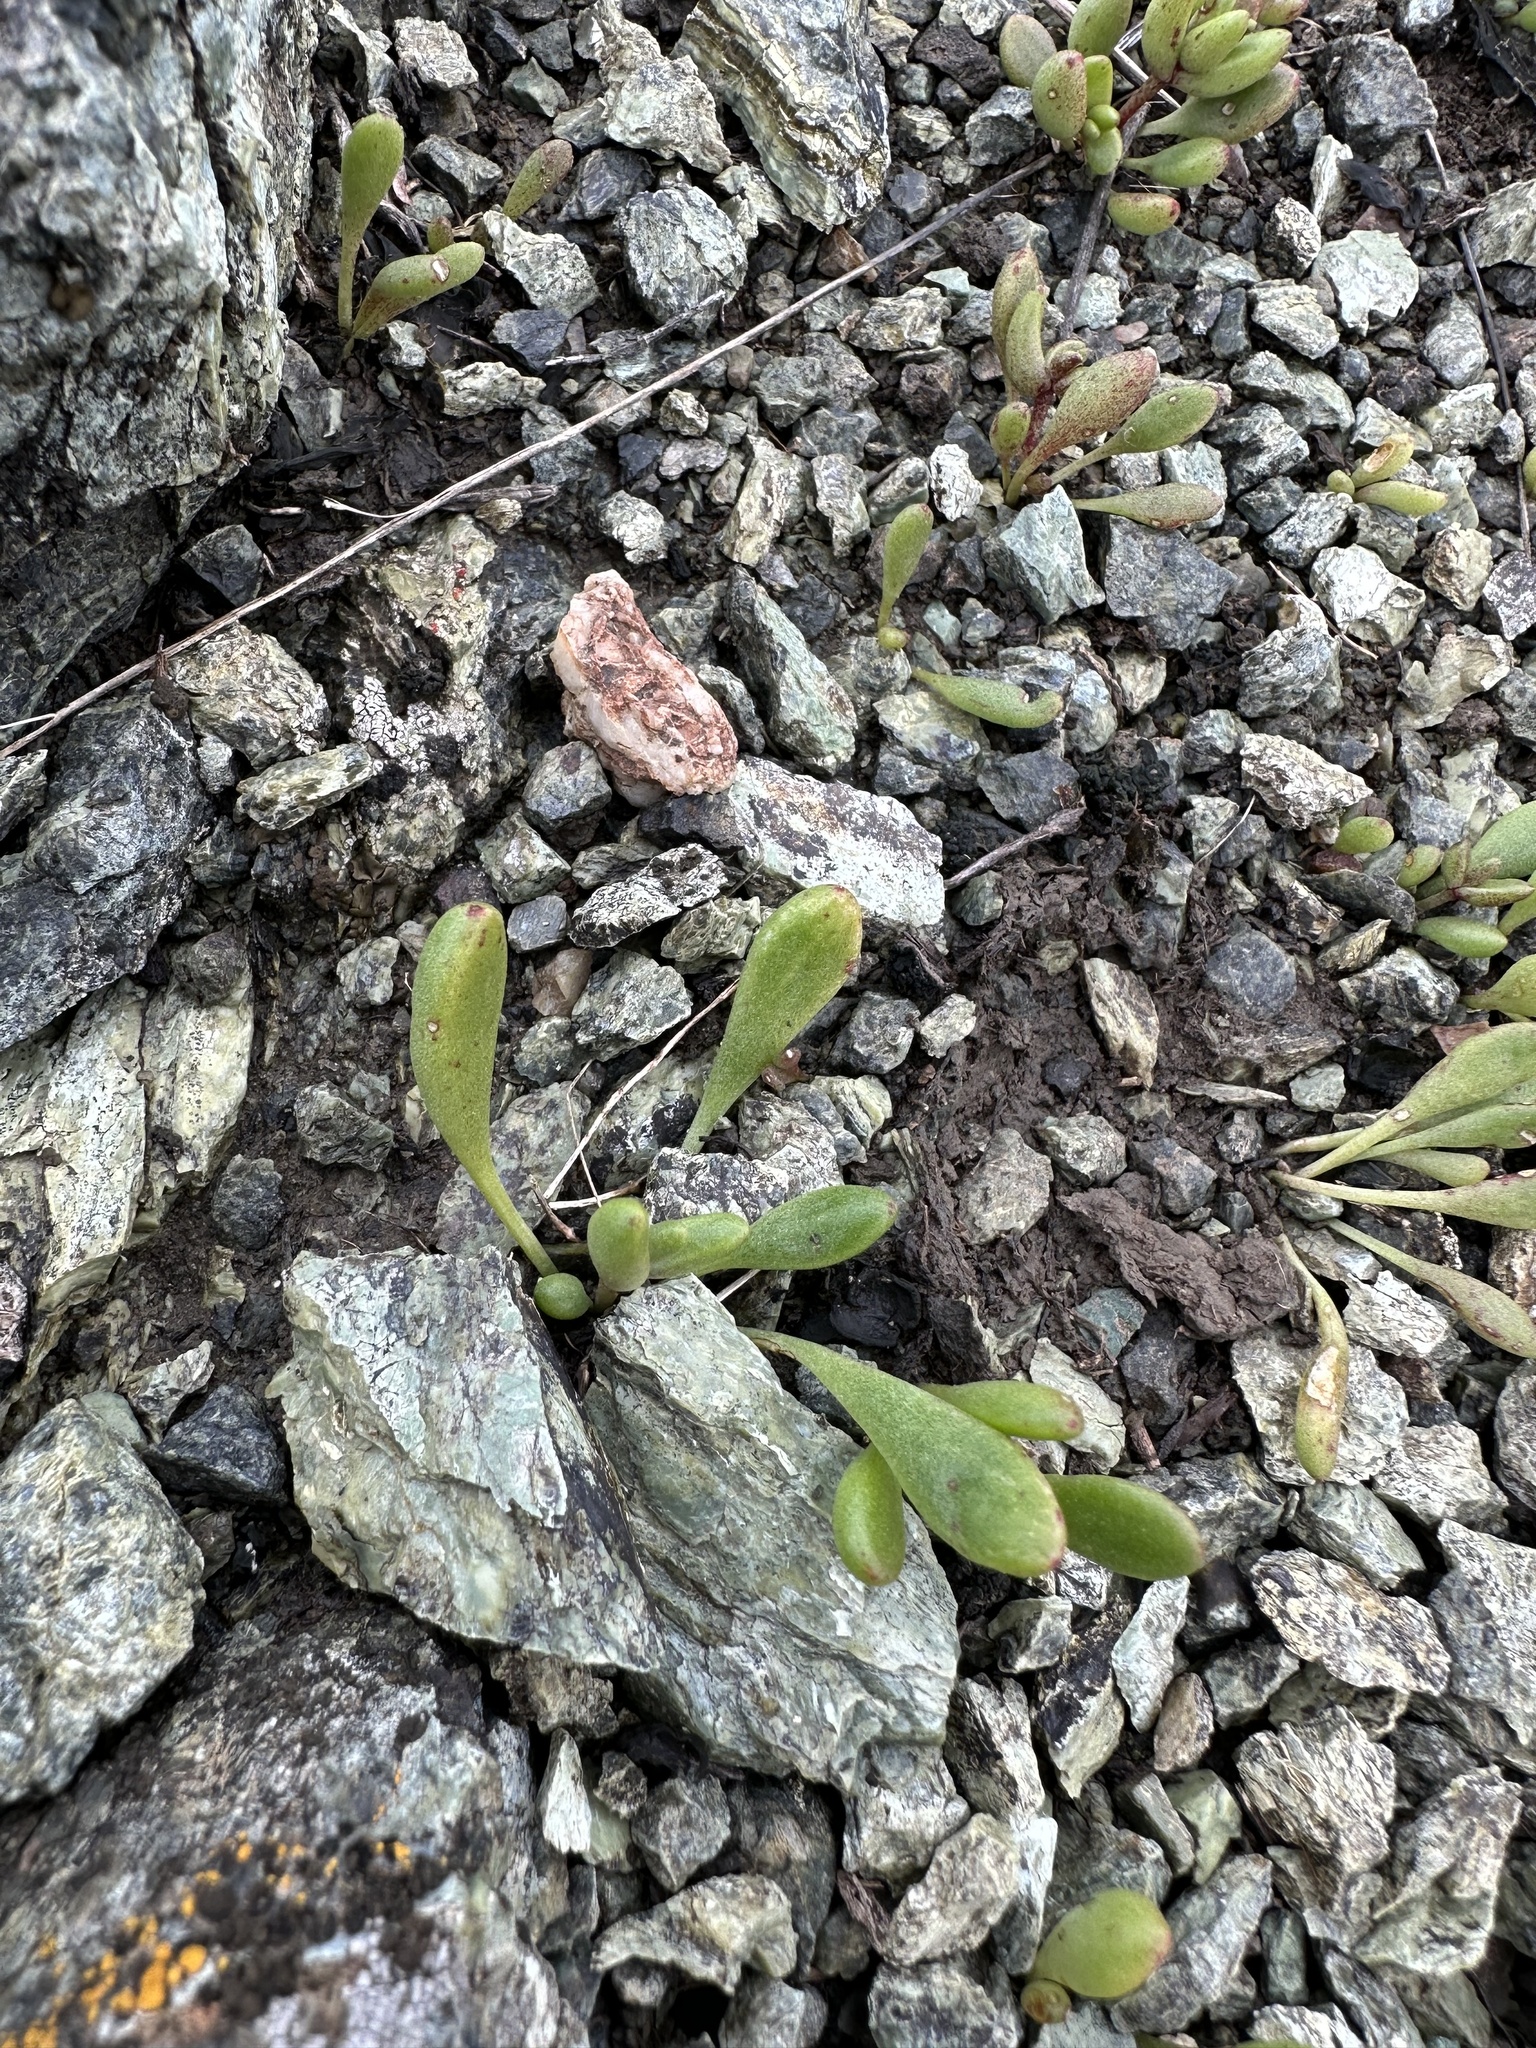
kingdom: Plantae
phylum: Tracheophyta
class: Magnoliopsida
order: Saxifragales
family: Crassulaceae
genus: Dudleya
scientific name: Dudleya blochmaniae
